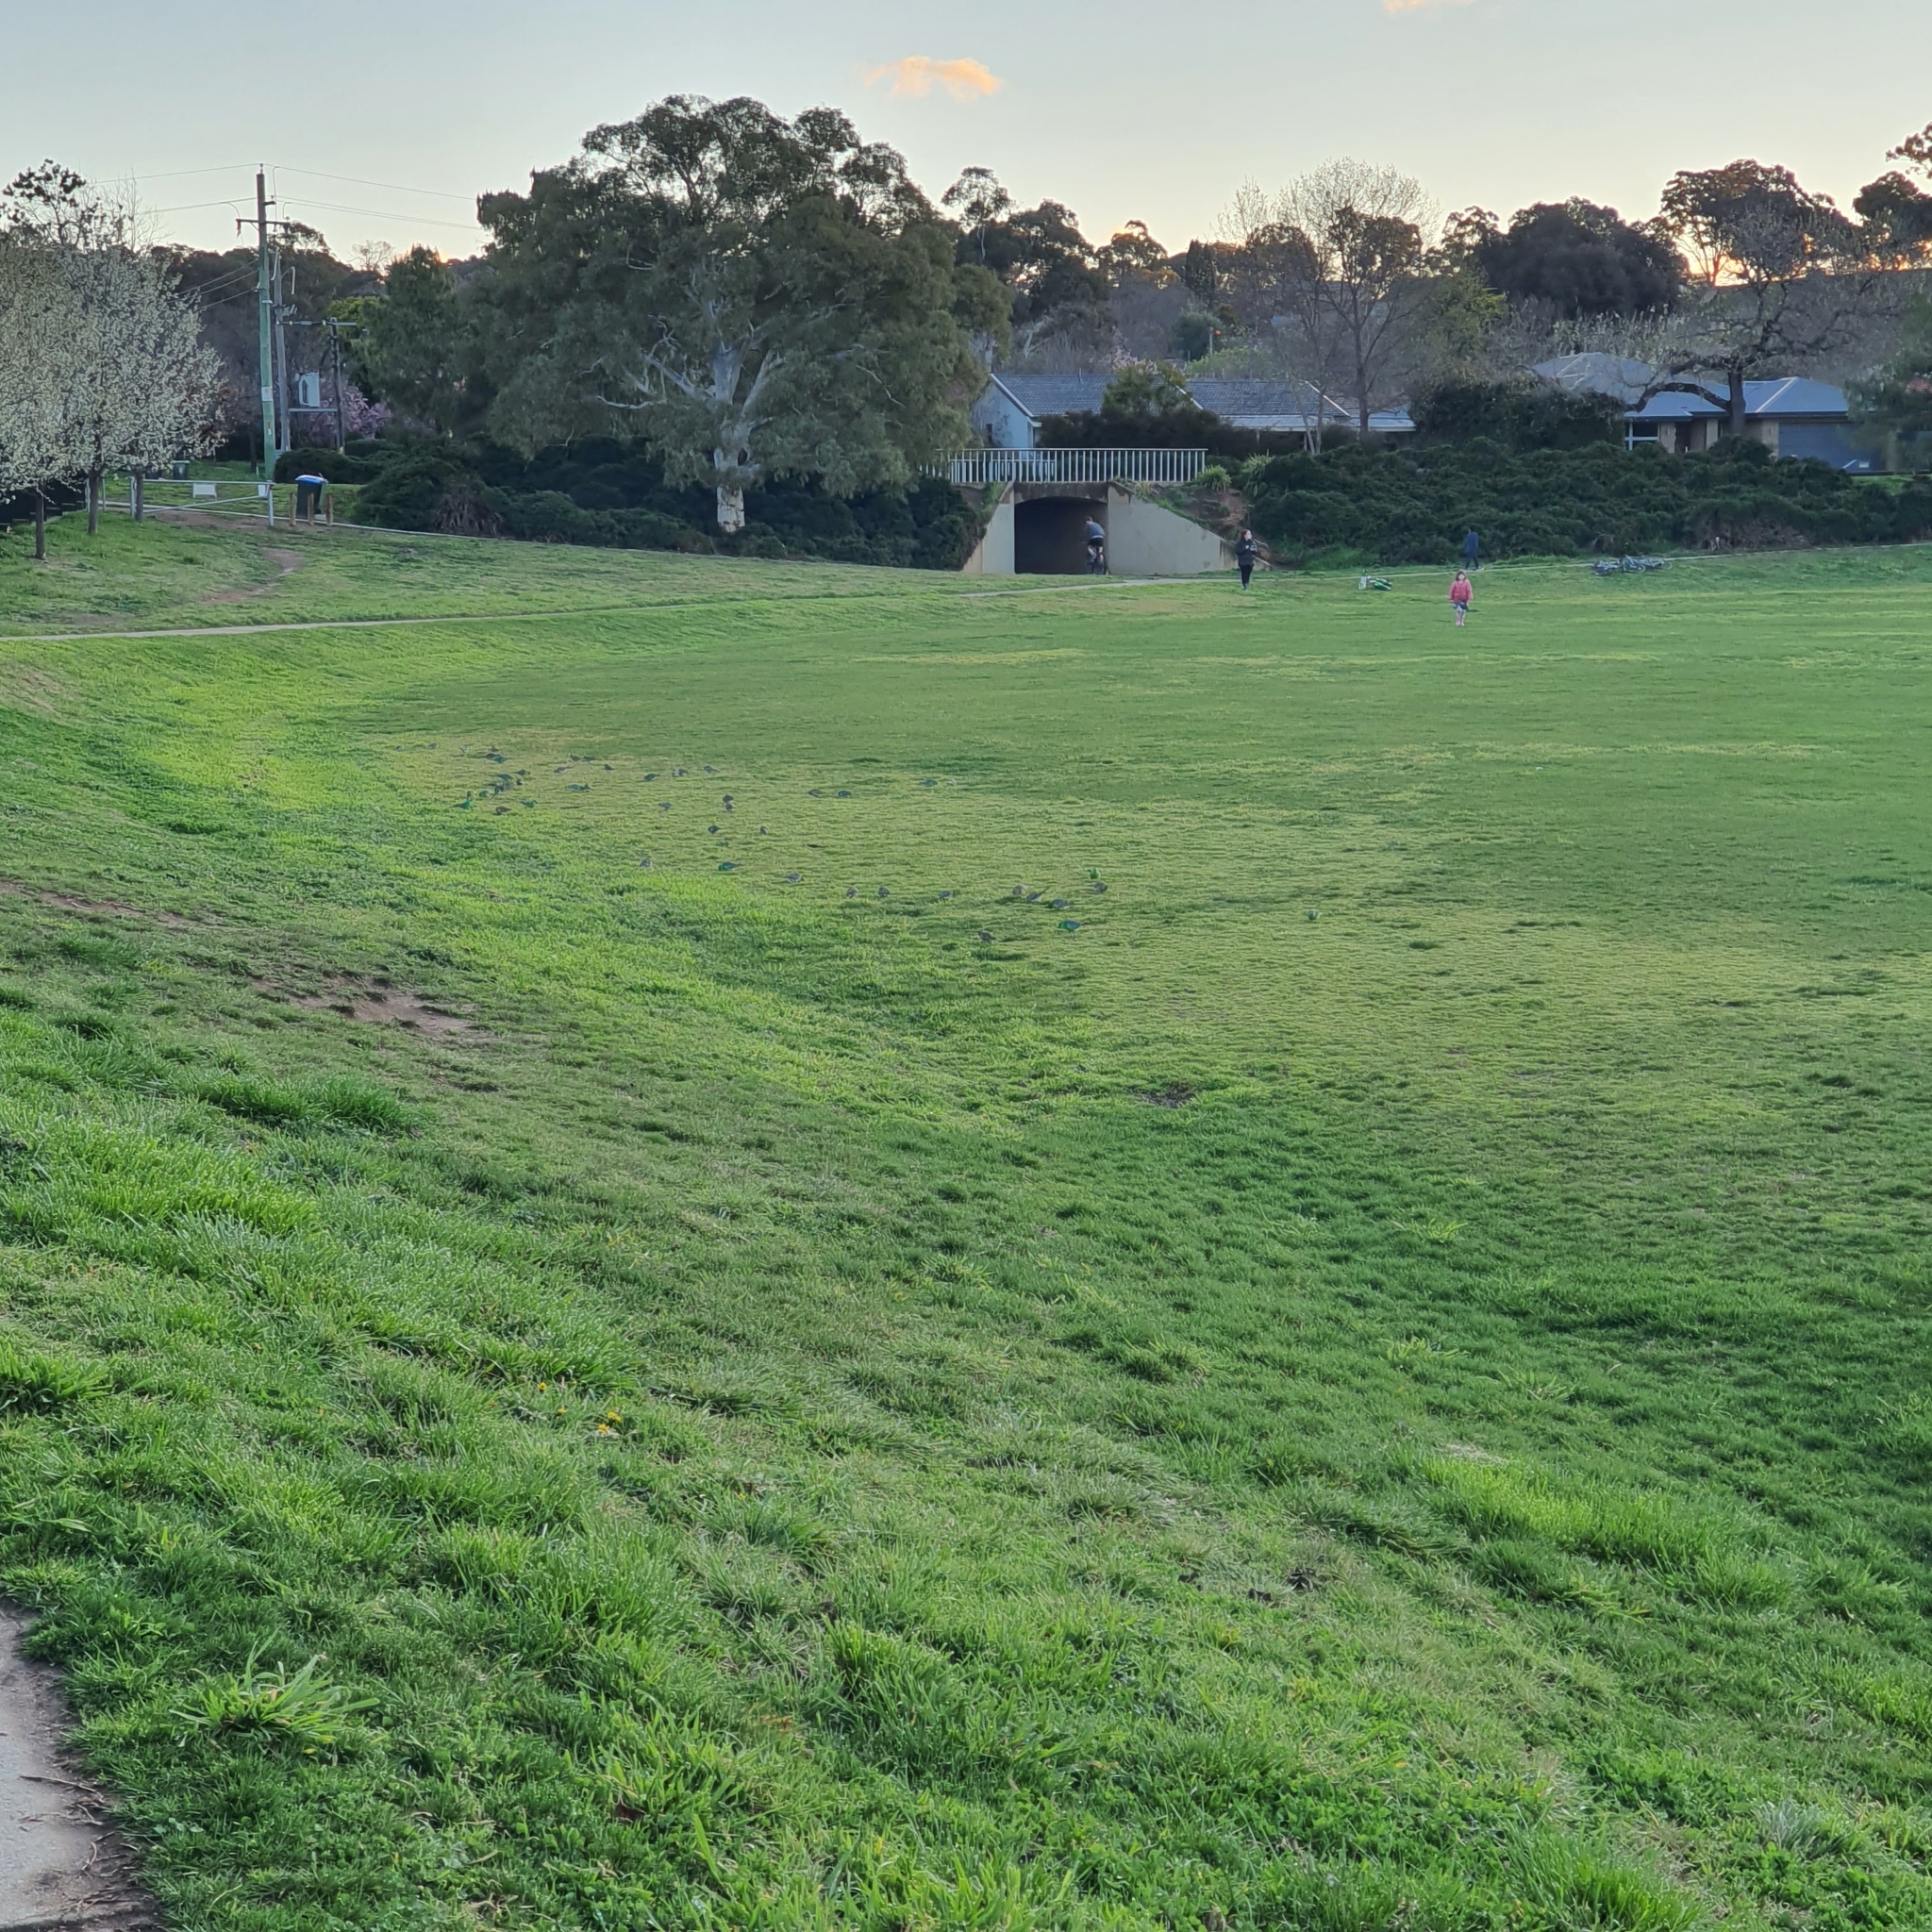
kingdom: Animalia
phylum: Chordata
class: Aves
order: Psittaciformes
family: Psittacidae
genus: Psephotus
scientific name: Psephotus haematonotus
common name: Red-rumped parrot
